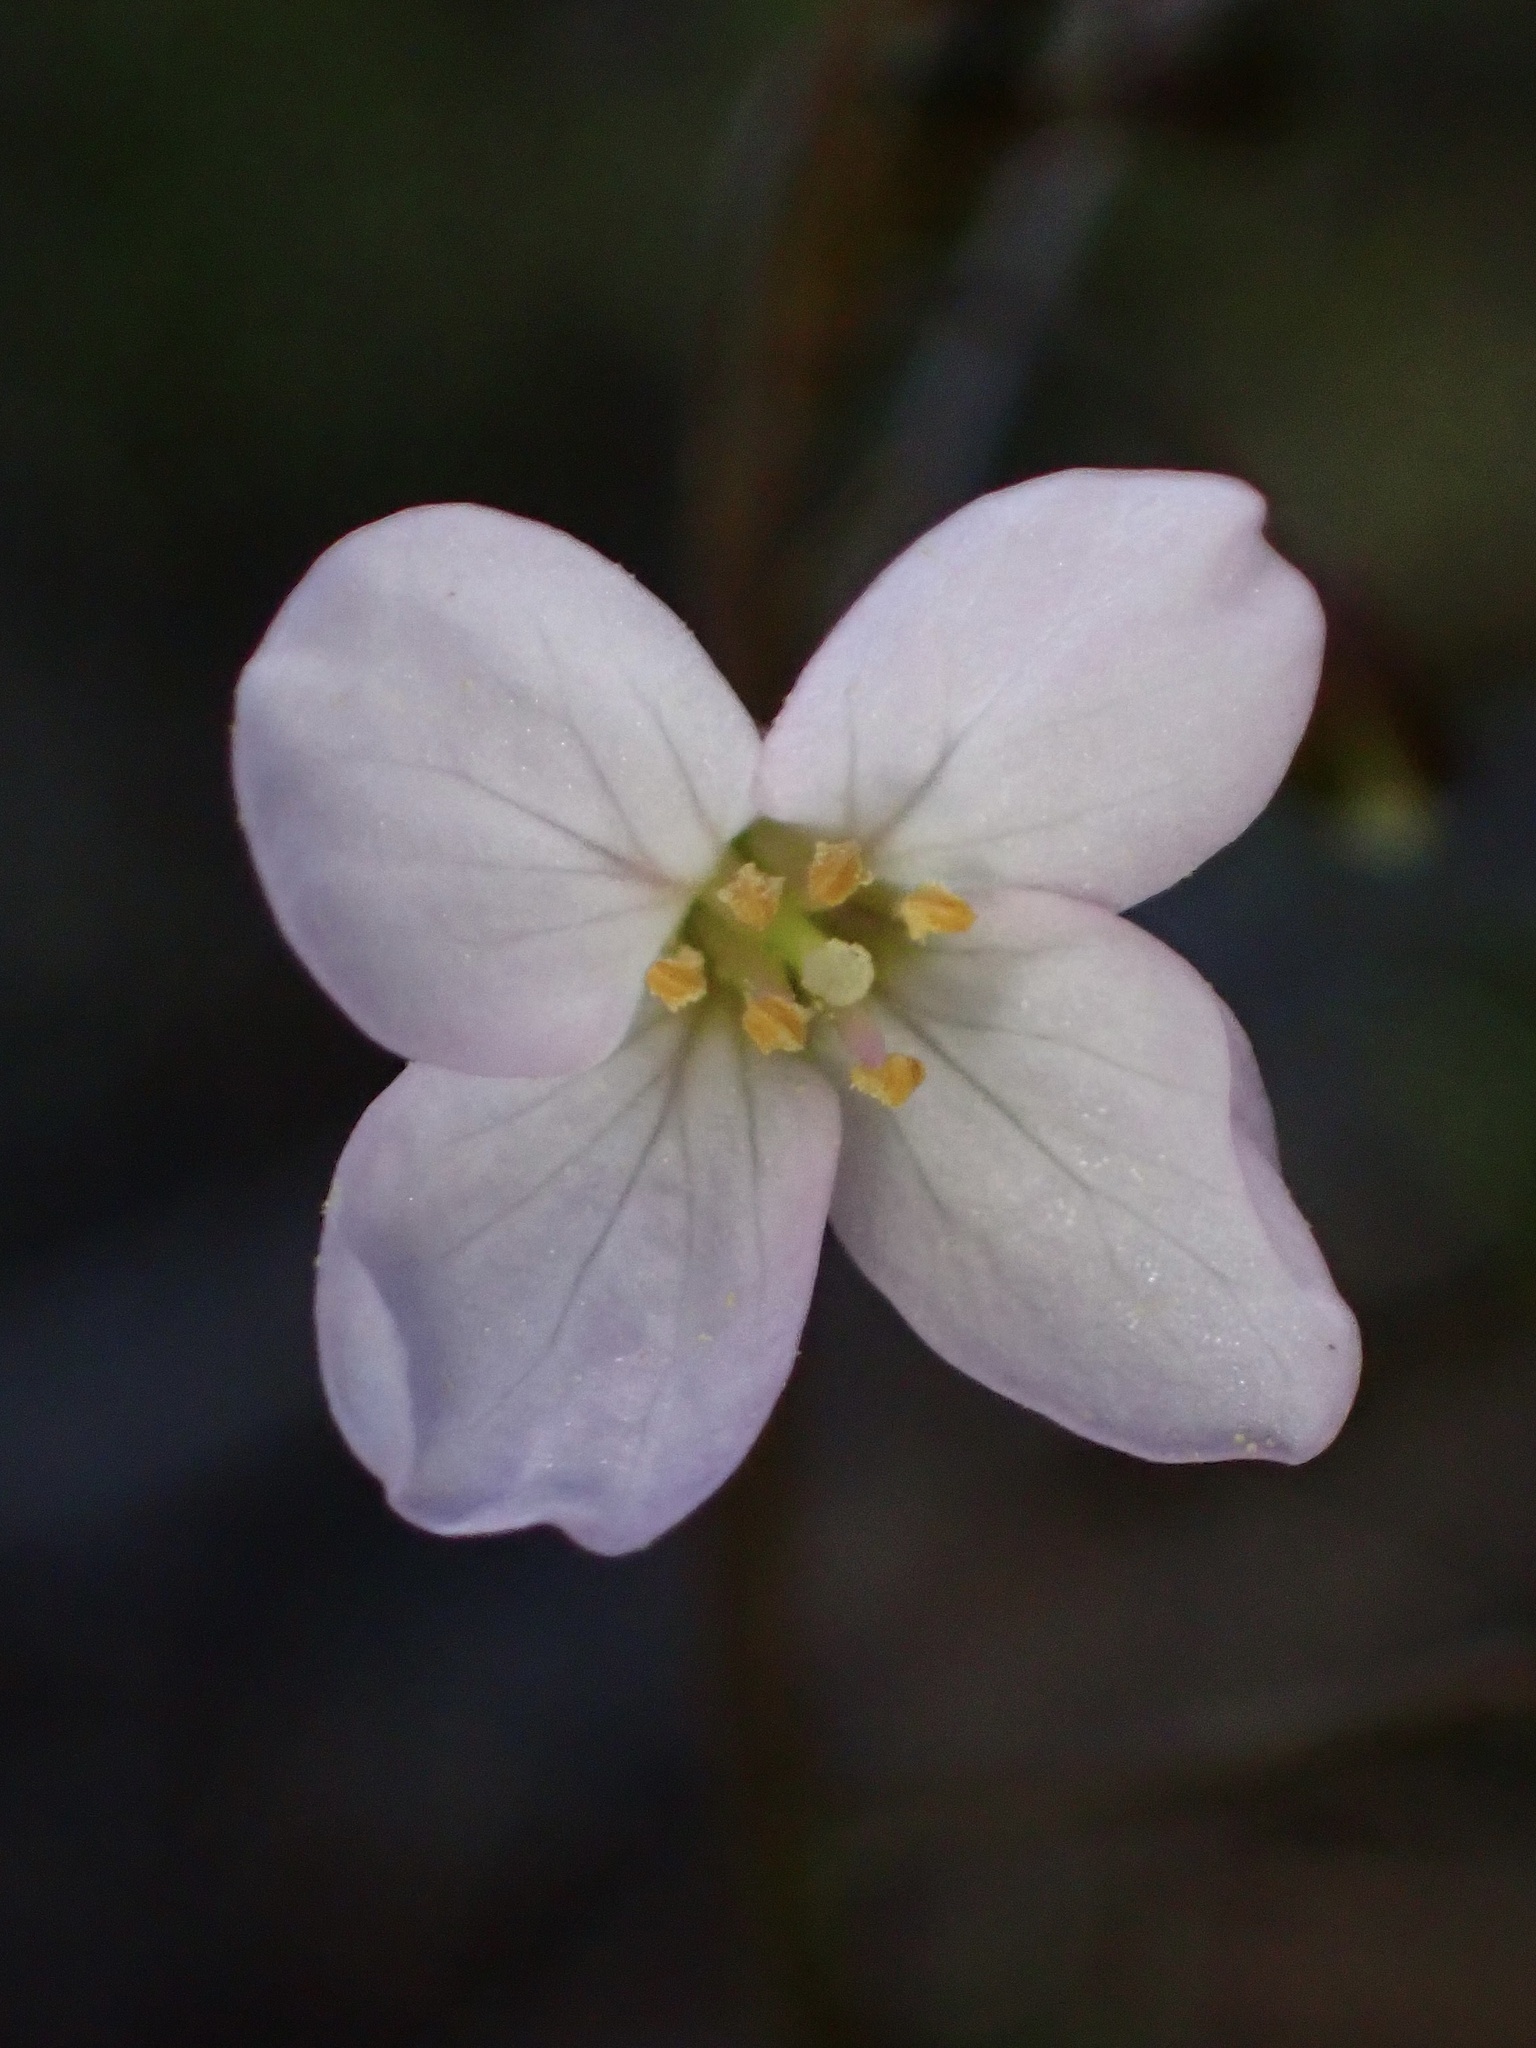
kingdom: Plantae
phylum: Tracheophyta
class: Magnoliopsida
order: Brassicales
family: Brassicaceae
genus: Cardamine
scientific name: Cardamine californica
